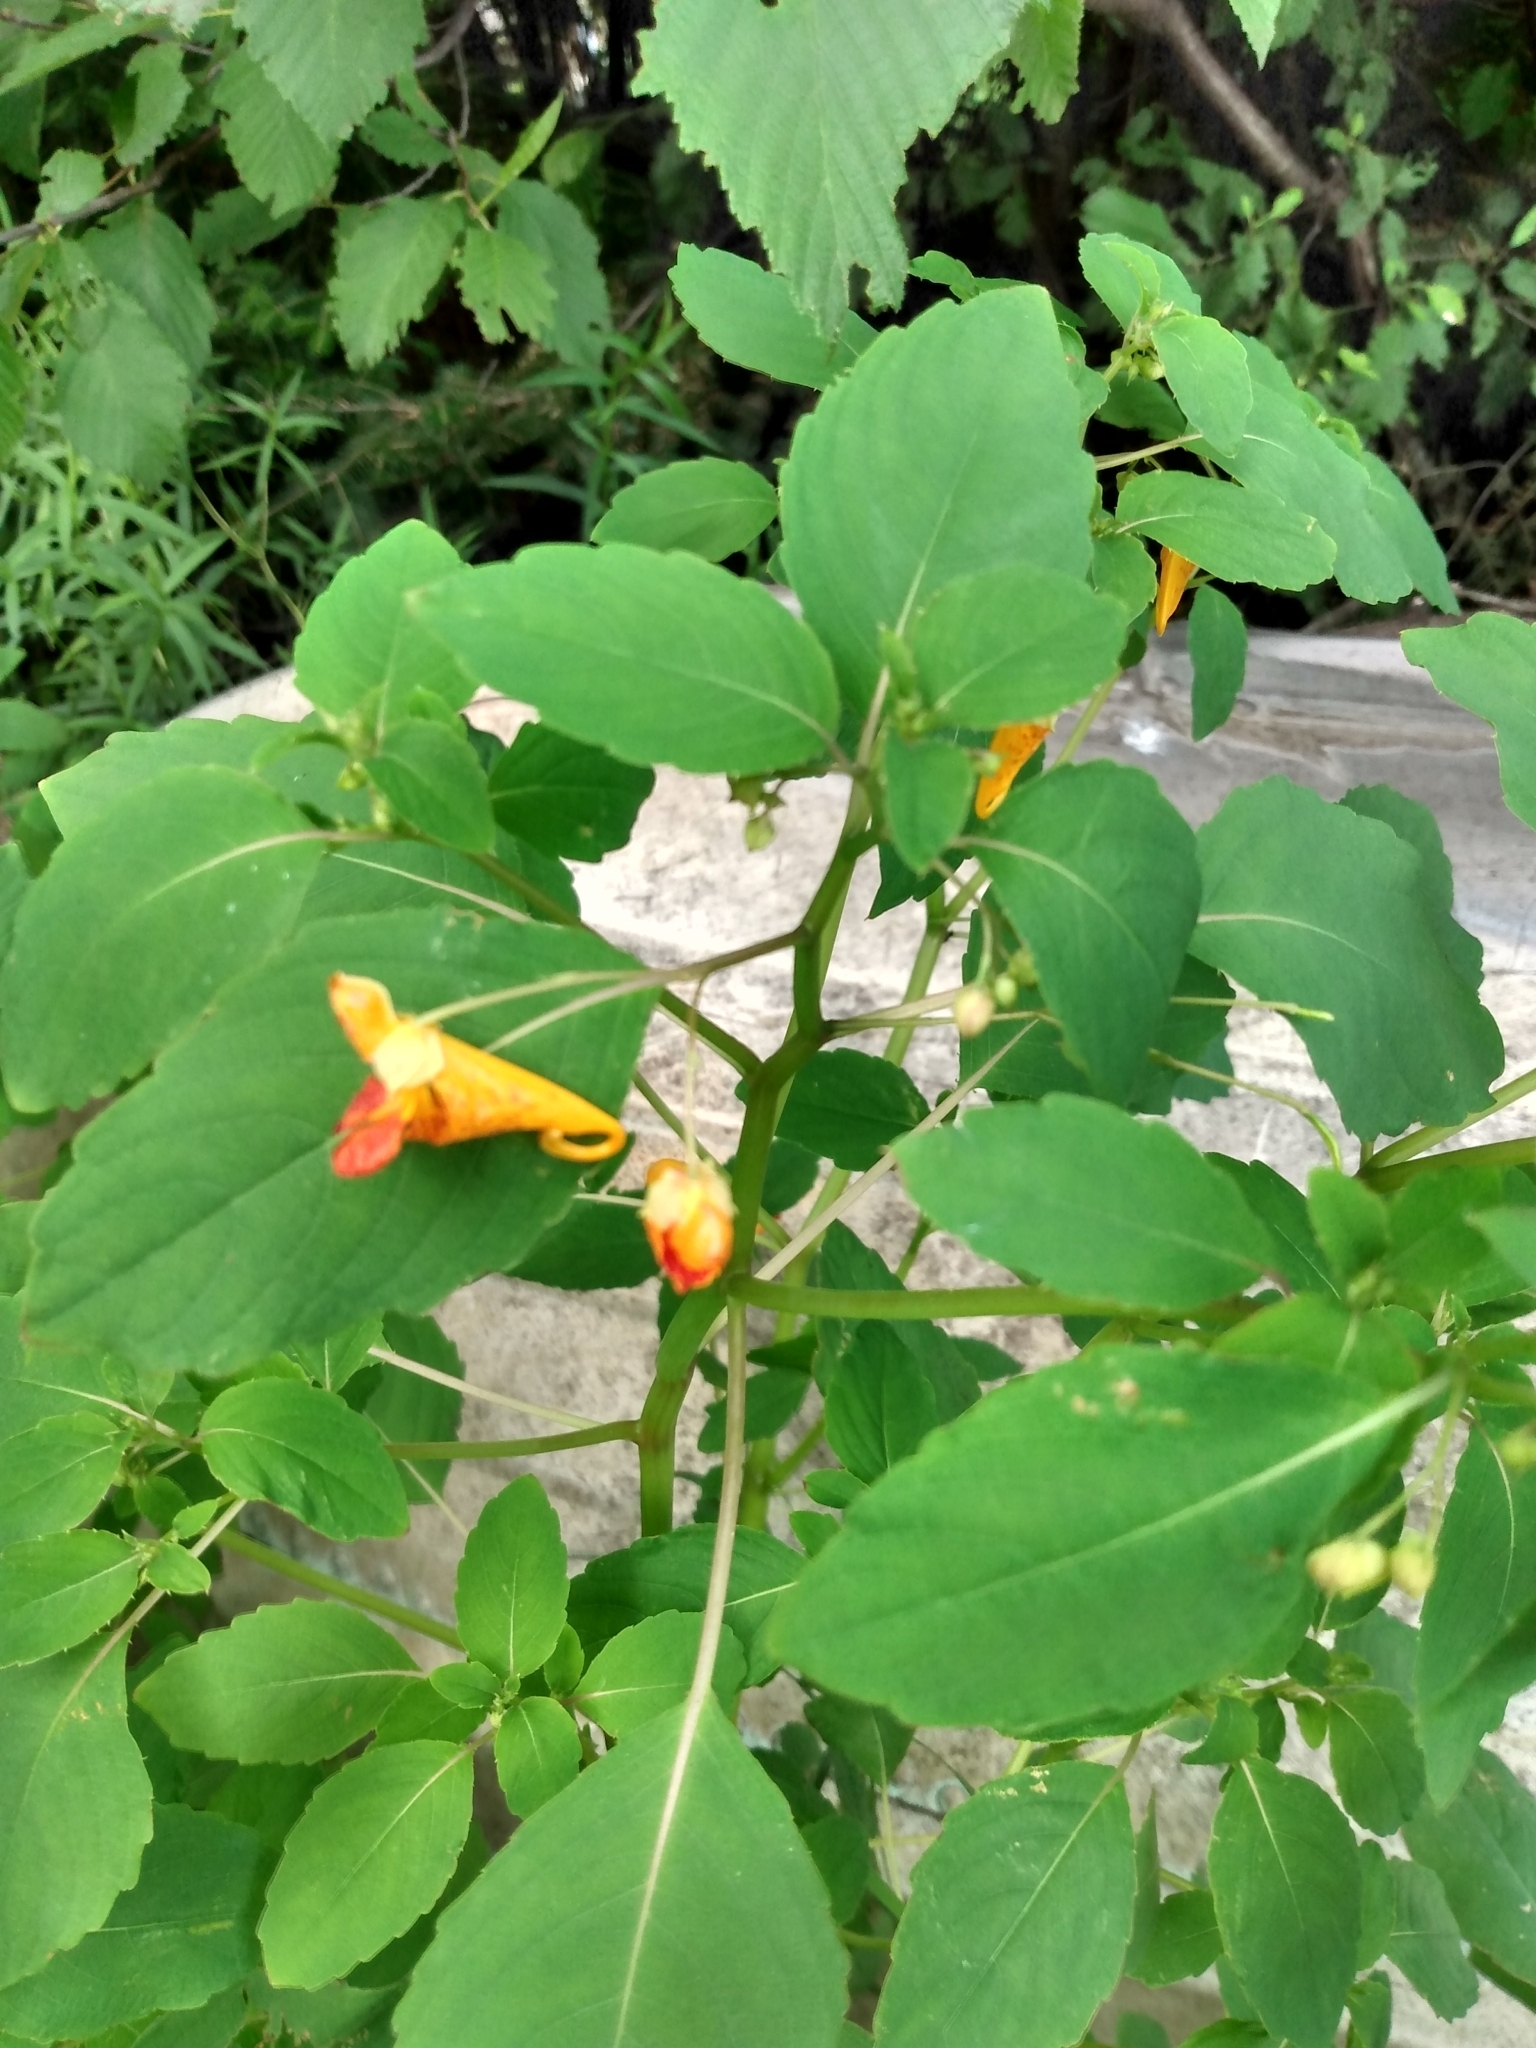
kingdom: Plantae
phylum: Tracheophyta
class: Magnoliopsida
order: Ericales
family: Balsaminaceae
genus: Impatiens
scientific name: Impatiens capensis
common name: Orange balsam
